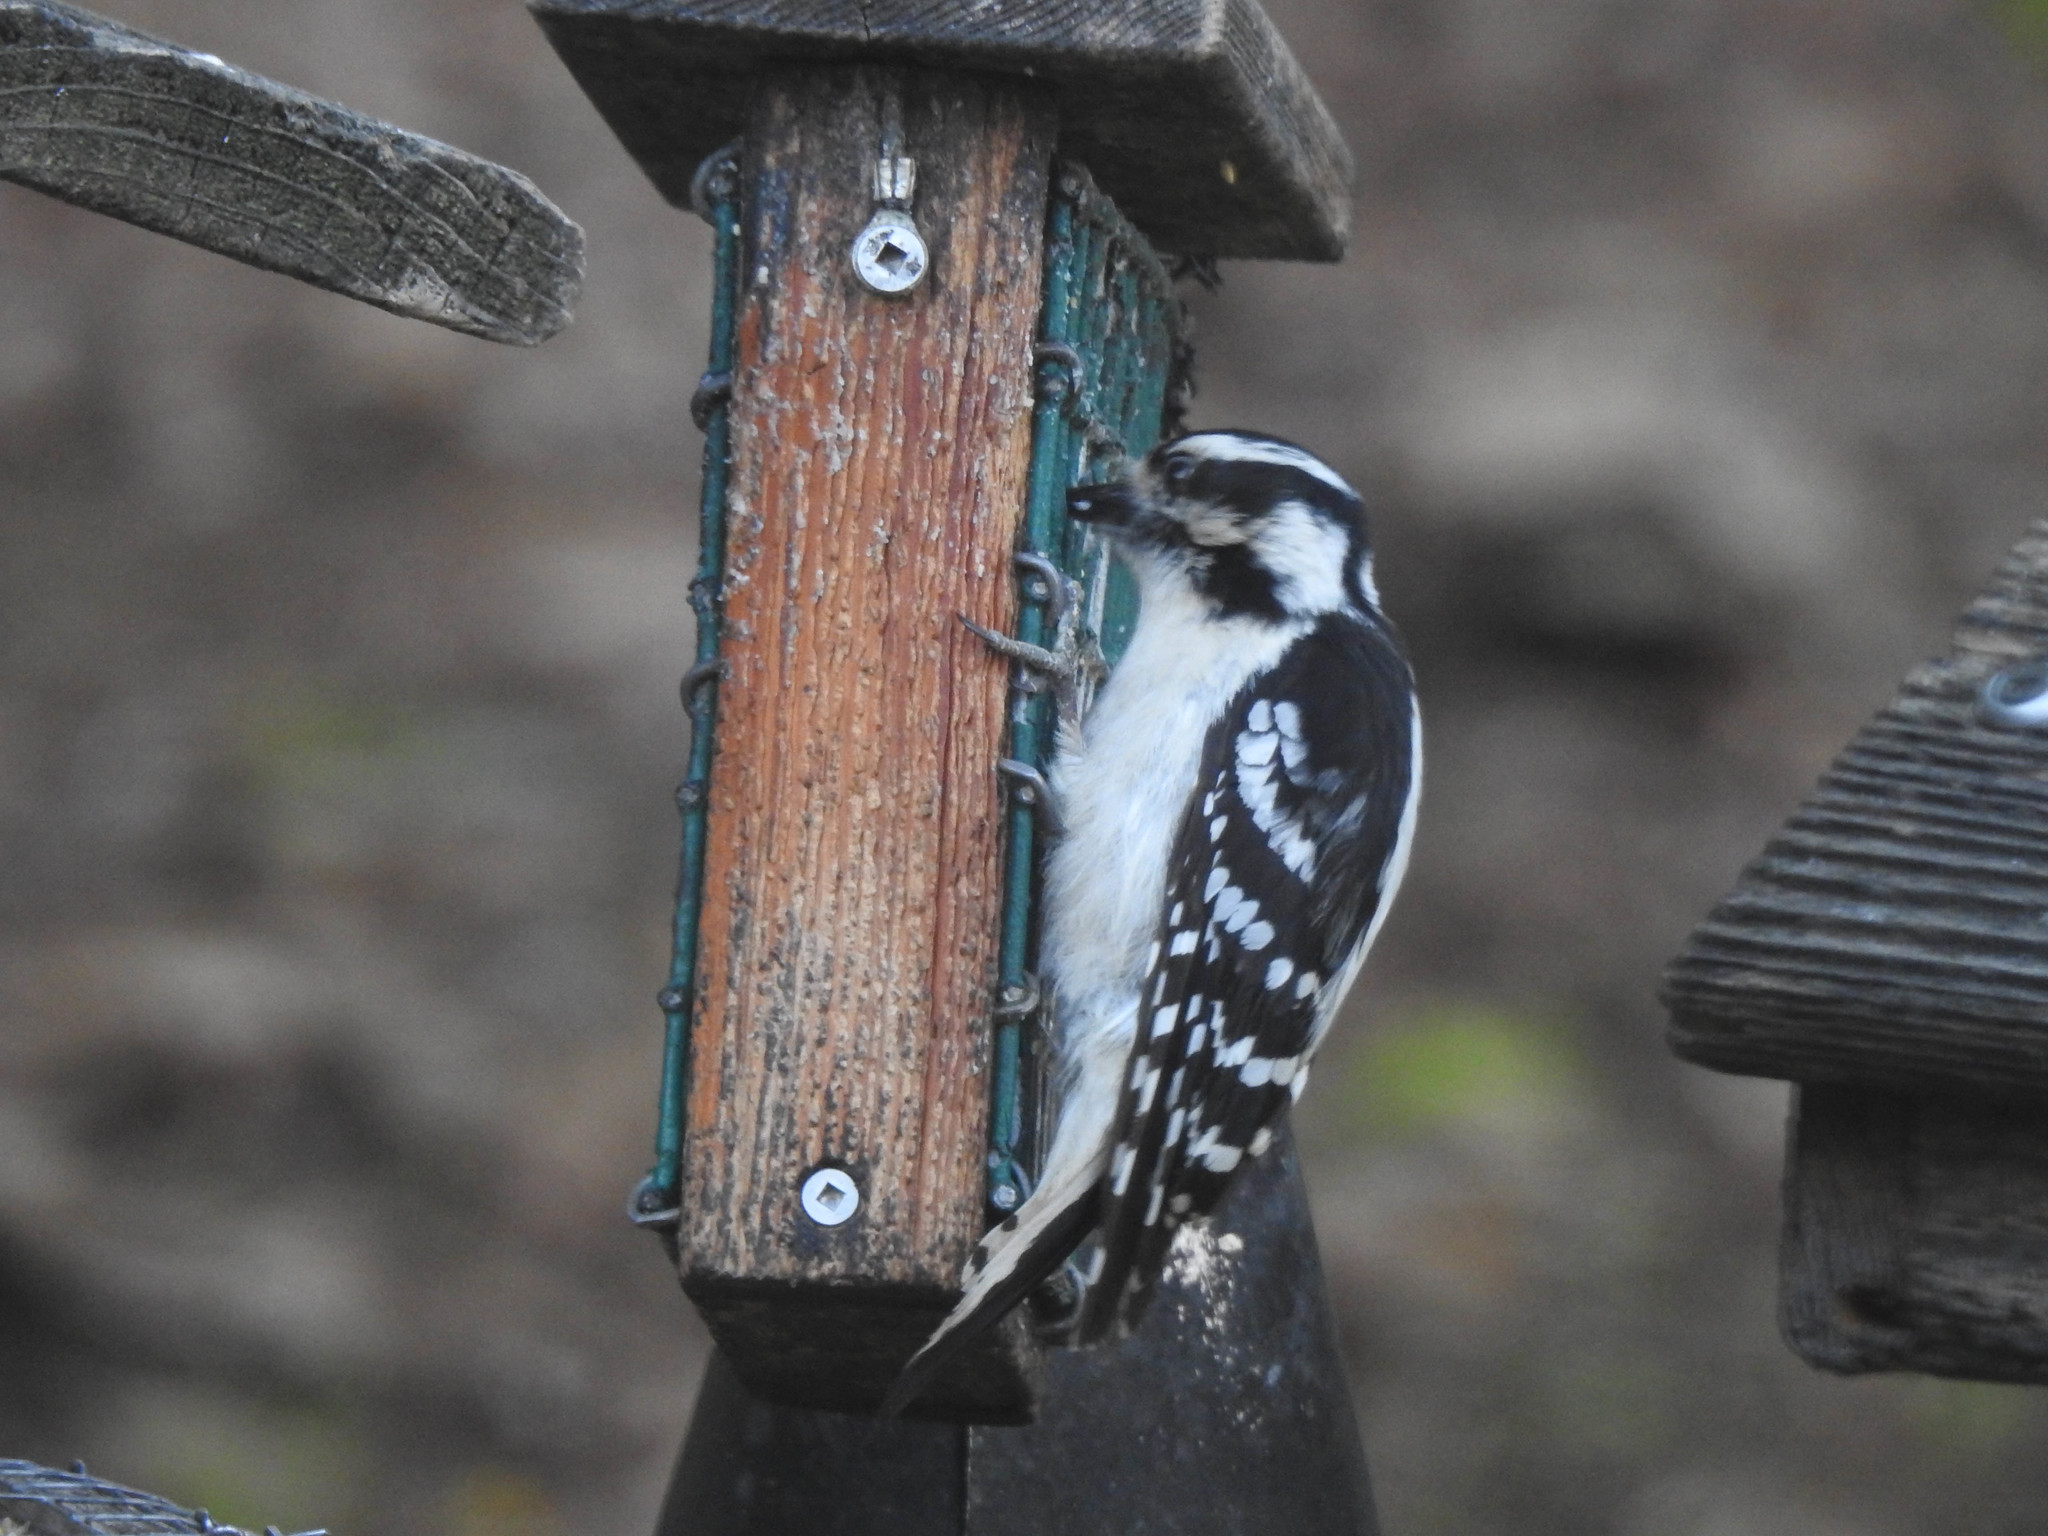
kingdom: Animalia
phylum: Chordata
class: Aves
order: Piciformes
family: Picidae
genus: Dryobates
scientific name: Dryobates pubescens
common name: Downy woodpecker
